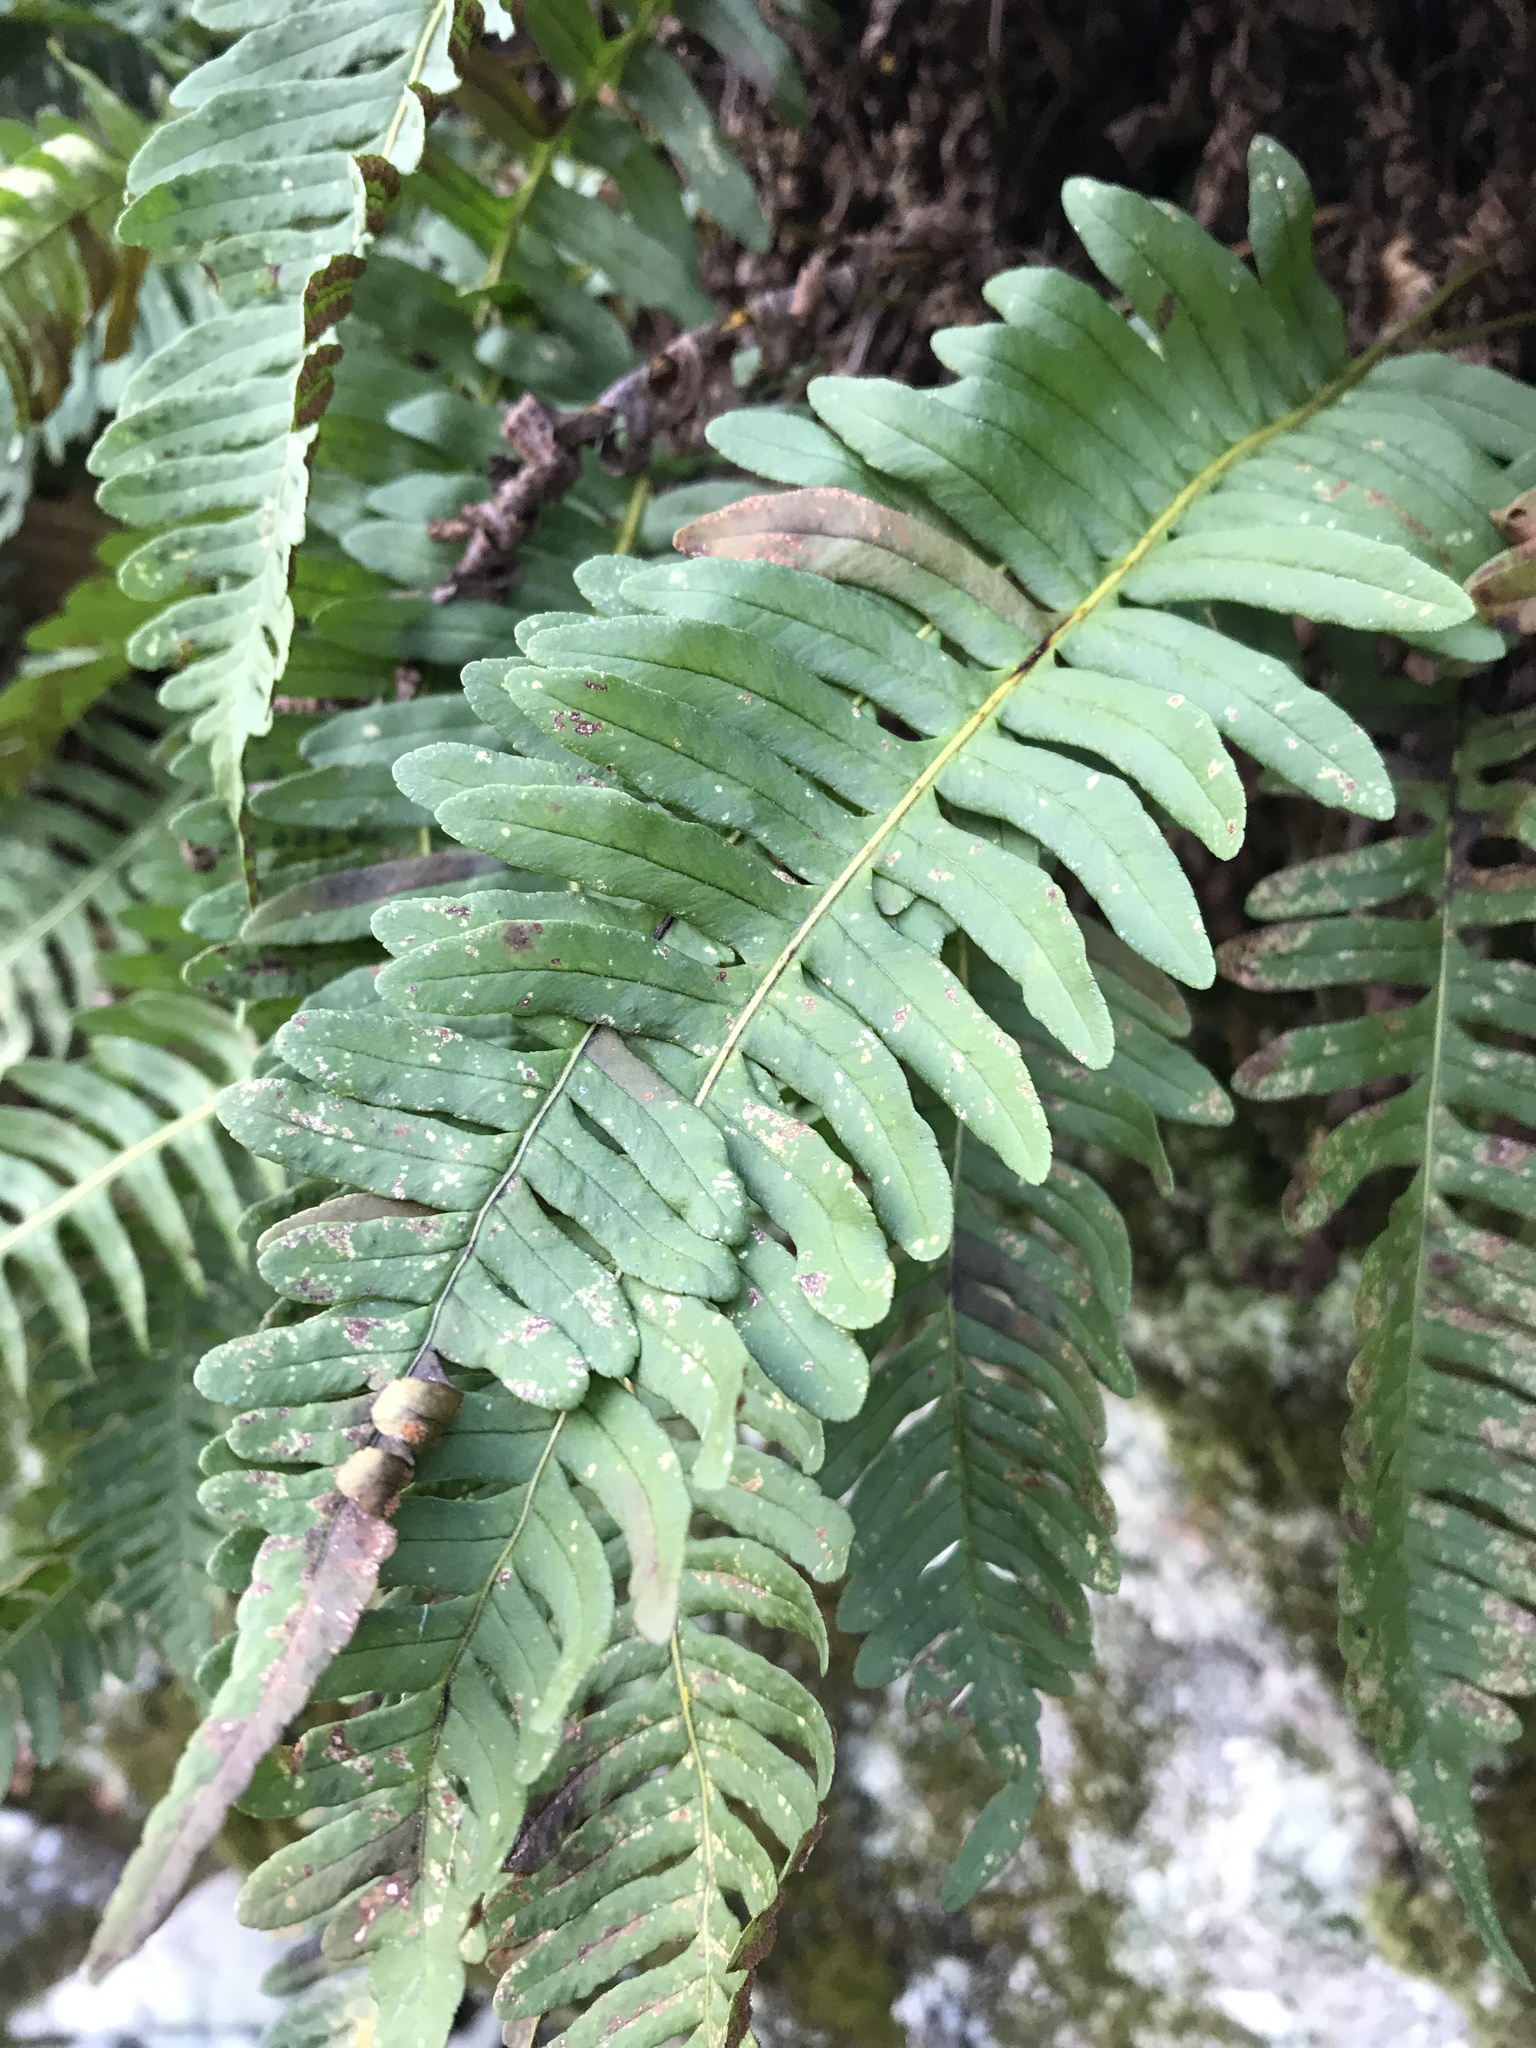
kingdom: Plantae
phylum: Tracheophyta
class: Polypodiopsida
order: Polypodiales
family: Polypodiaceae
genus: Polypodium
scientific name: Polypodium virginianum
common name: American wall fern
